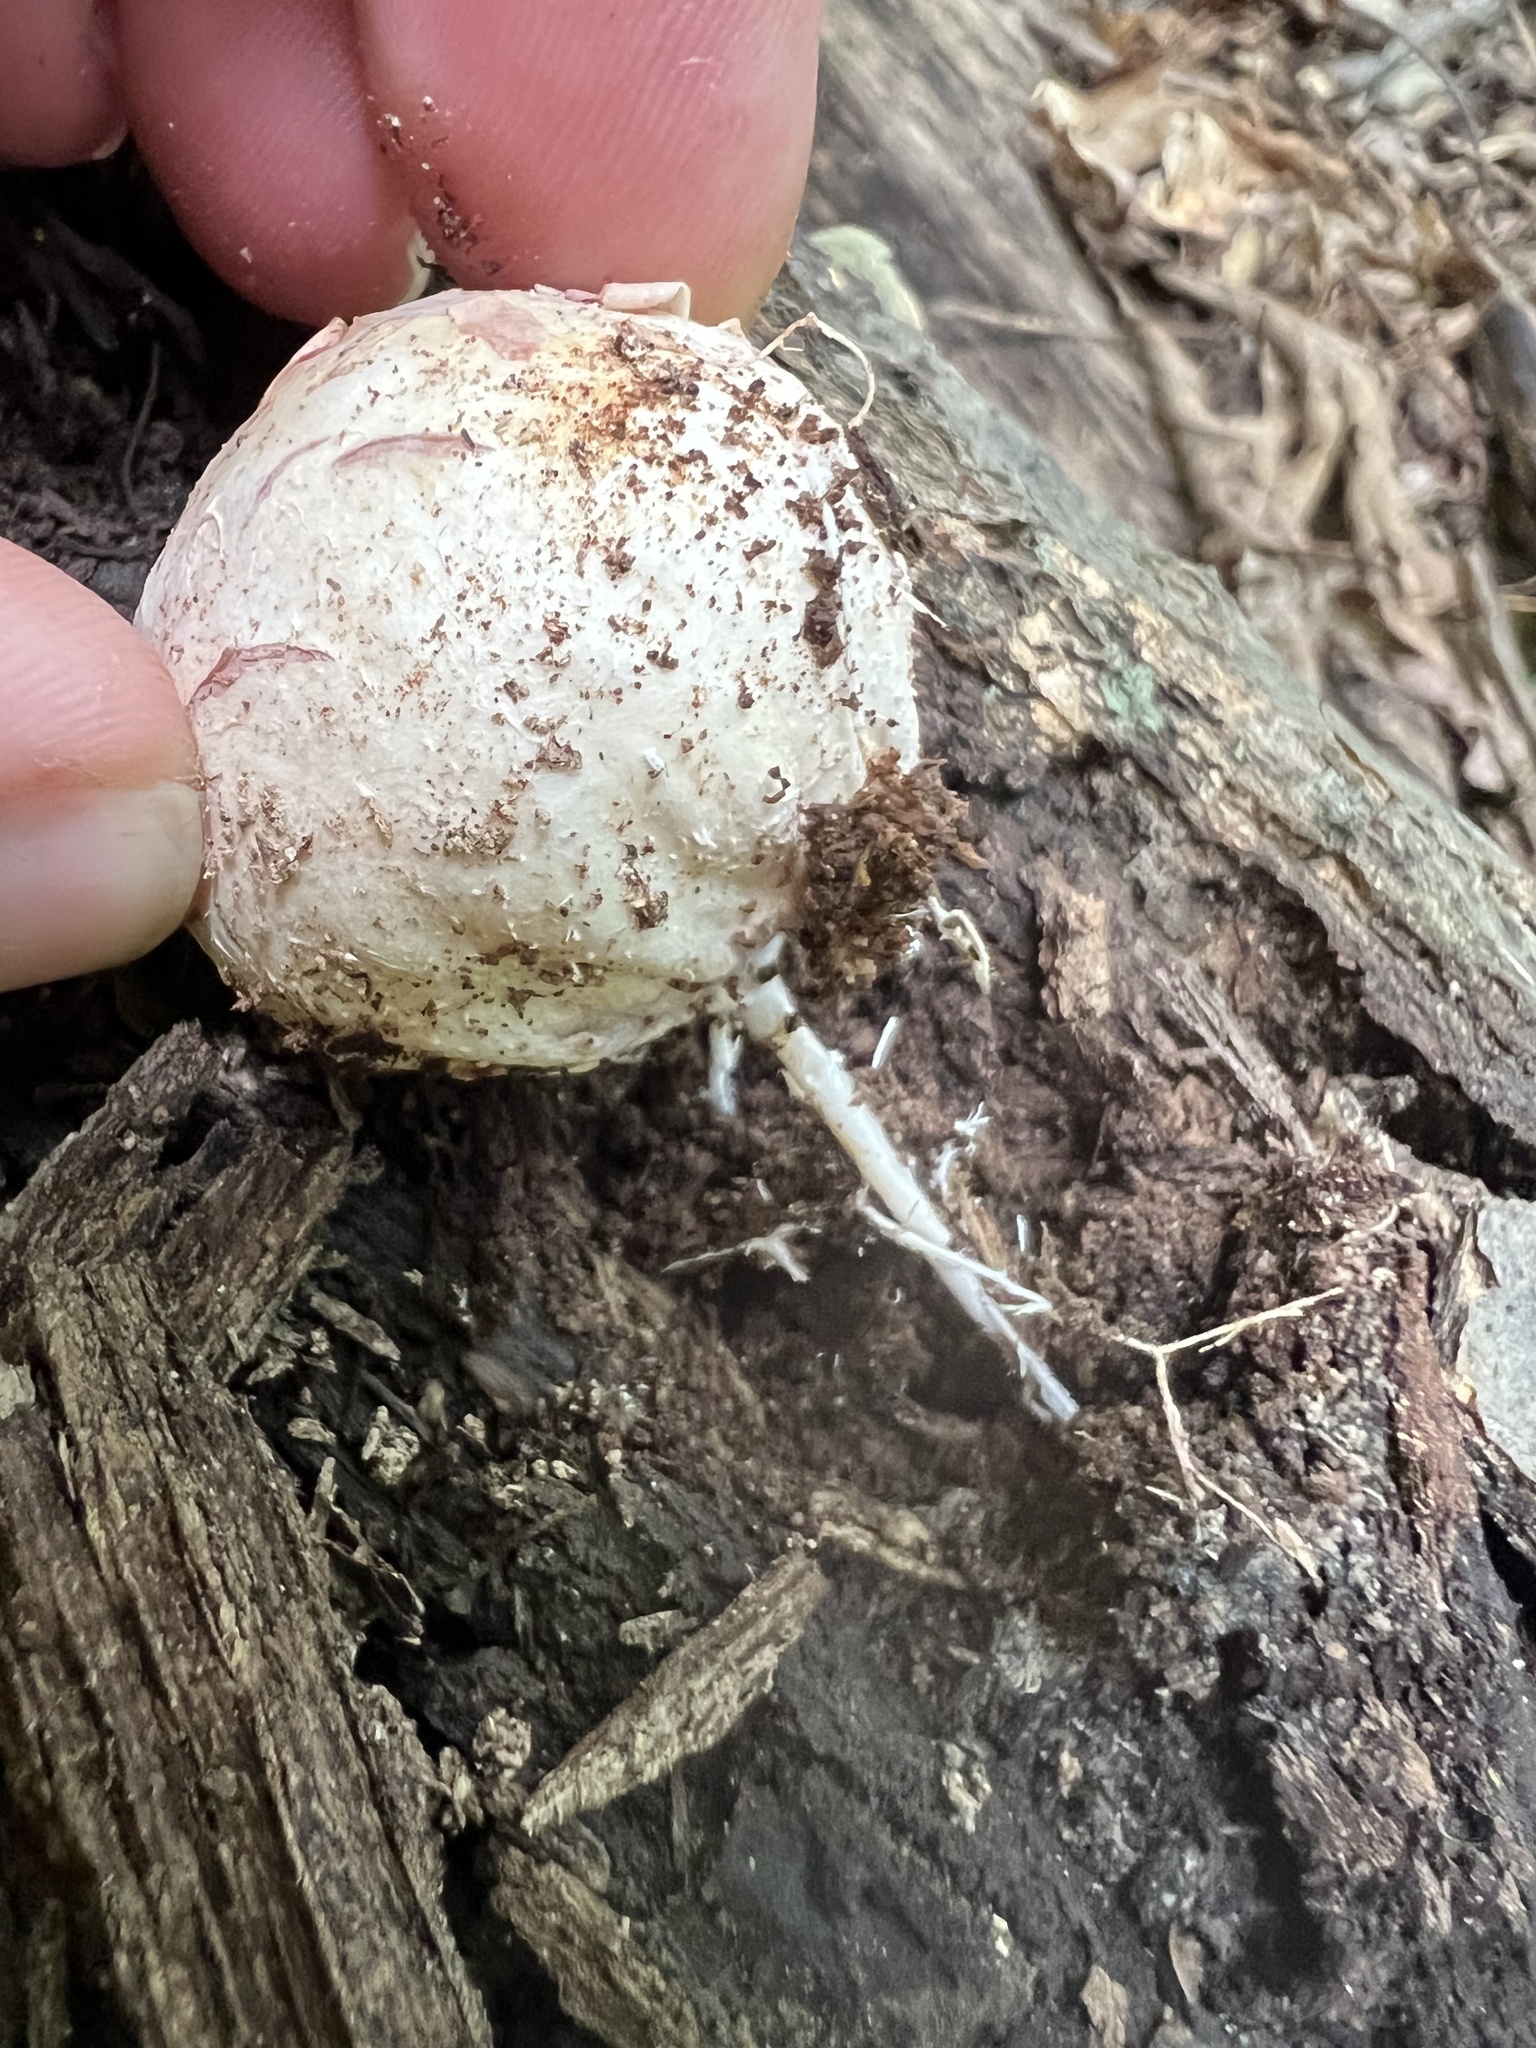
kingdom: Fungi
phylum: Basidiomycota
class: Agaricomycetes
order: Phallales
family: Phallaceae
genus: Phallus
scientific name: Phallus ravenelii
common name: Ravenel's stinkhorn
